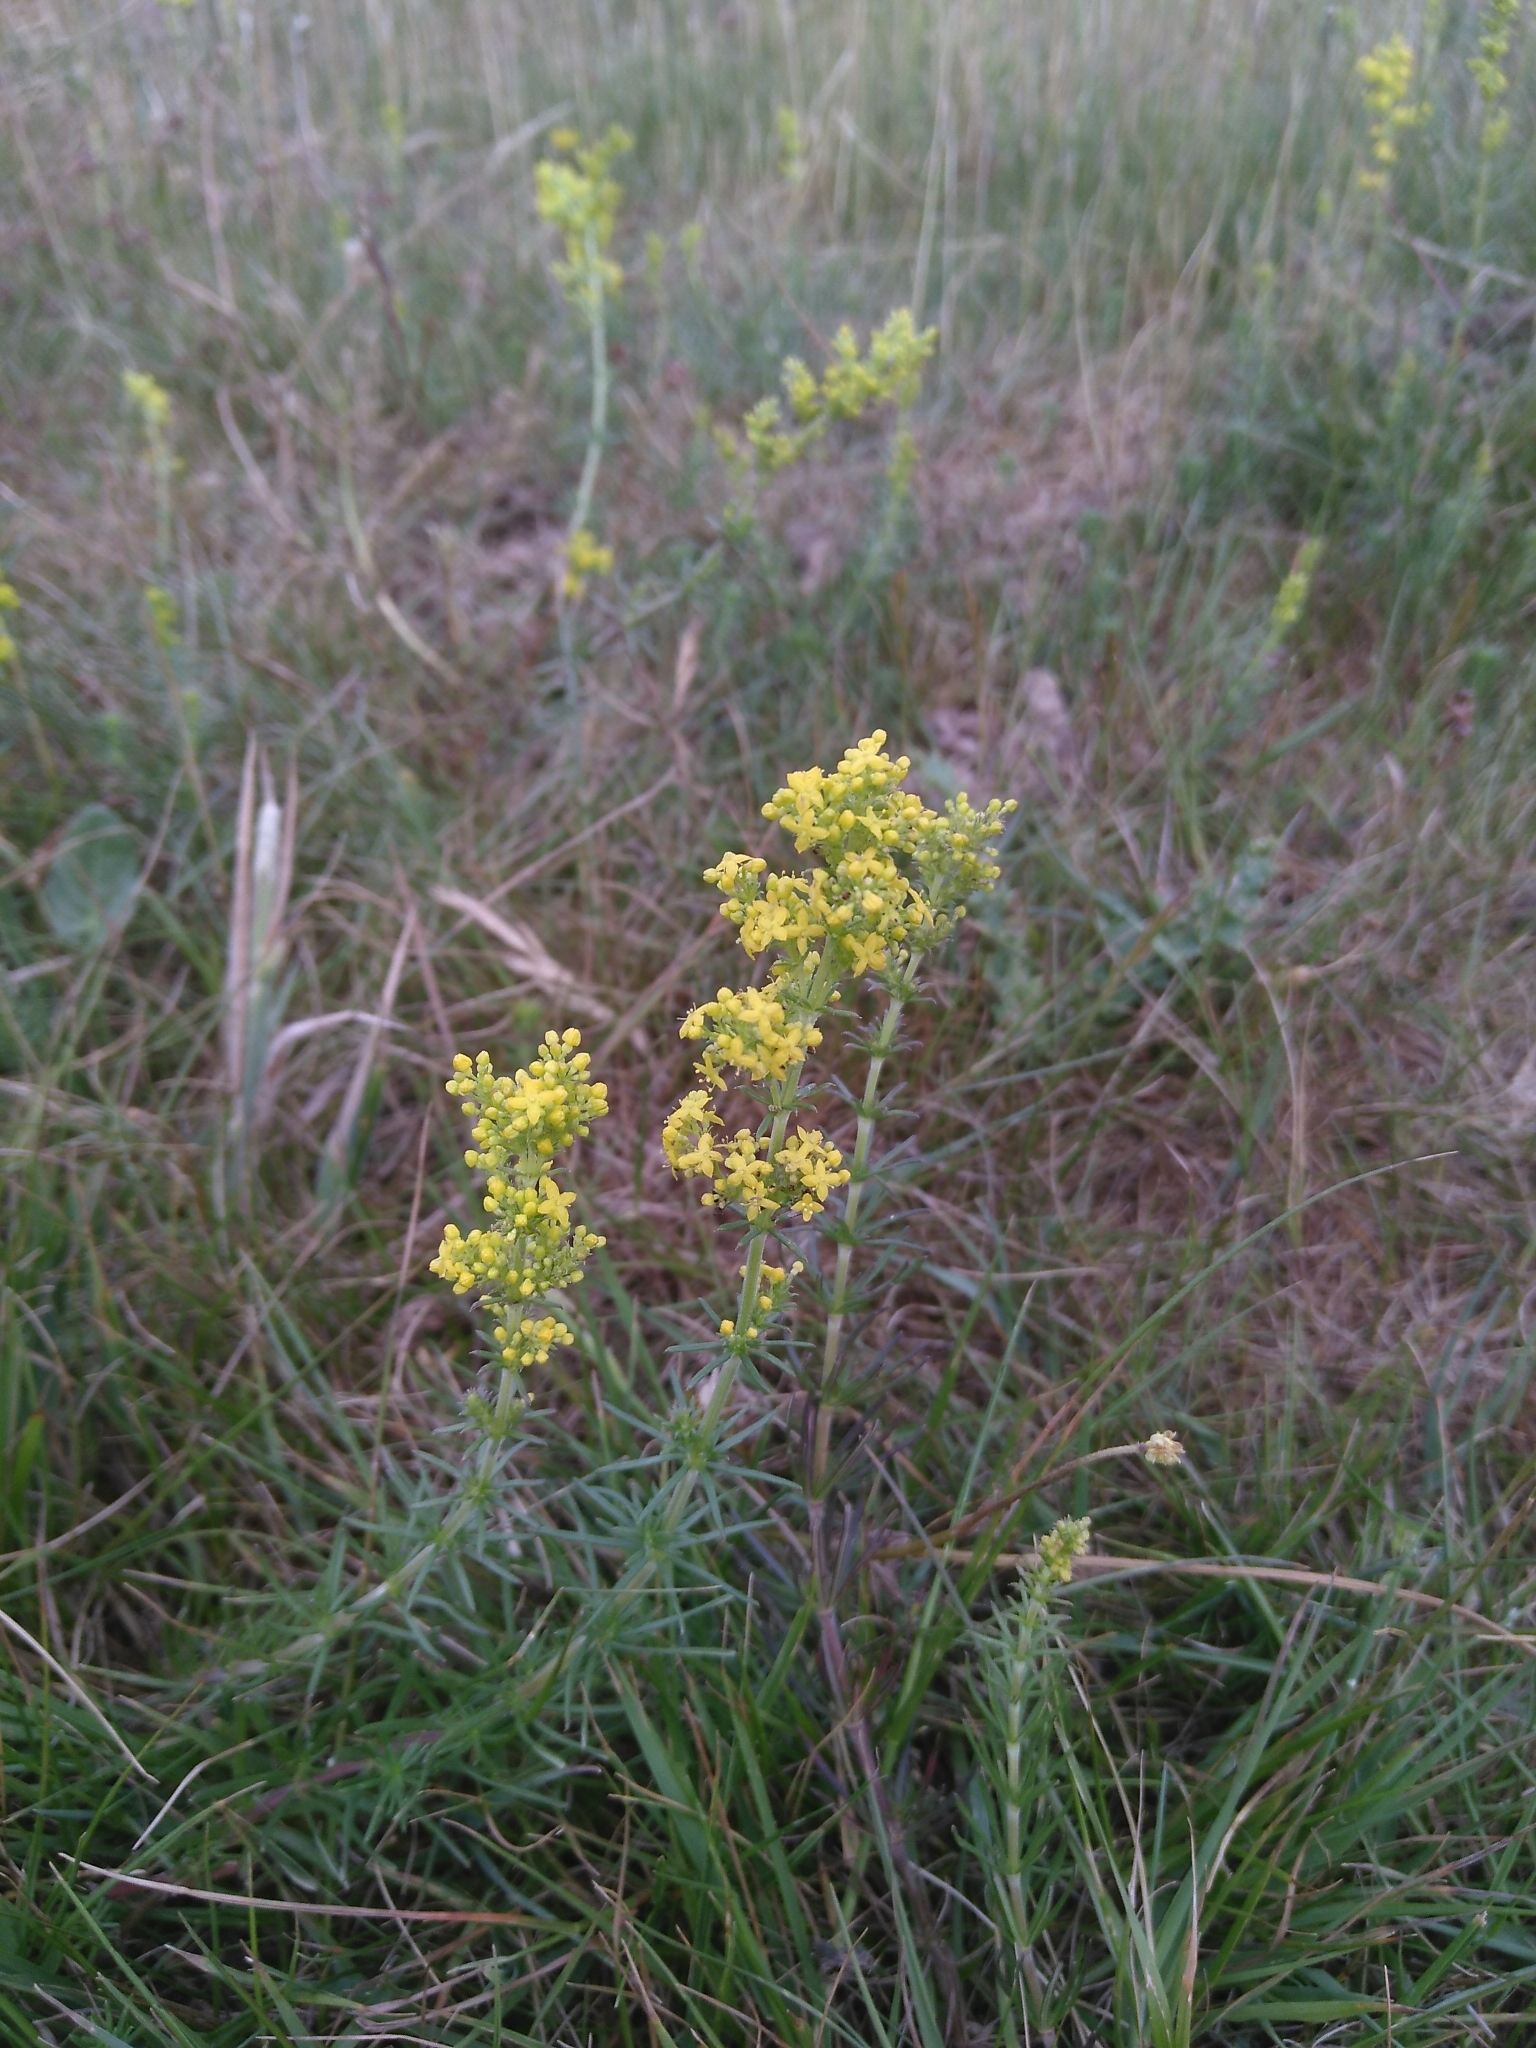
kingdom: Plantae
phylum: Tracheophyta
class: Magnoliopsida
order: Gentianales
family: Rubiaceae
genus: Galium
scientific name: Galium verum
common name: Lady's bedstraw
